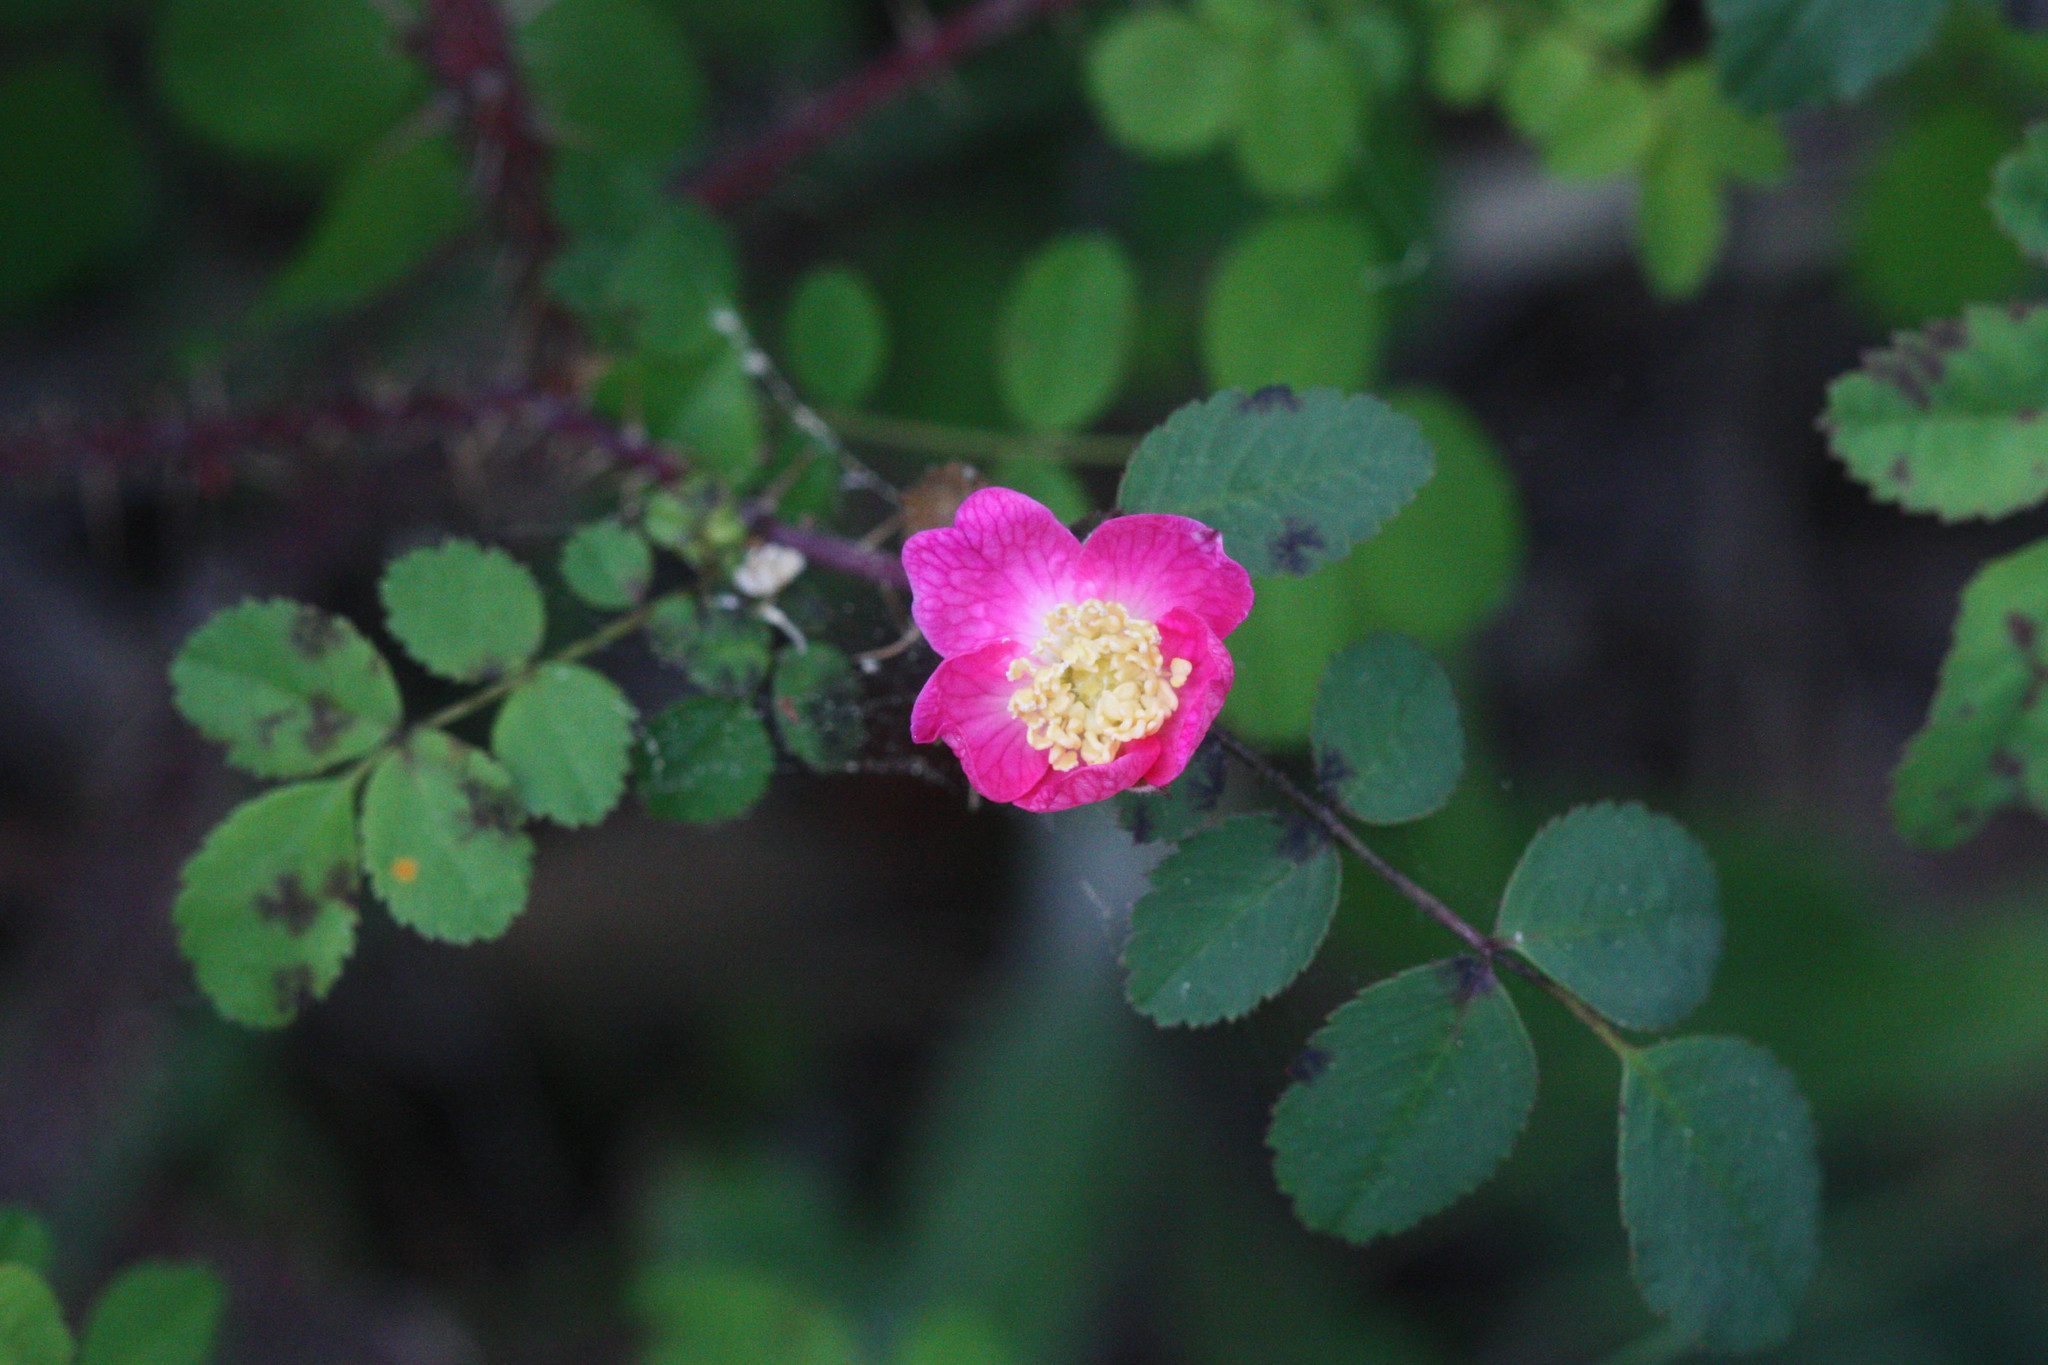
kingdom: Plantae
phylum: Tracheophyta
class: Magnoliopsida
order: Rosales
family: Rosaceae
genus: Rosa
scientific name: Rosa gymnocarpa
